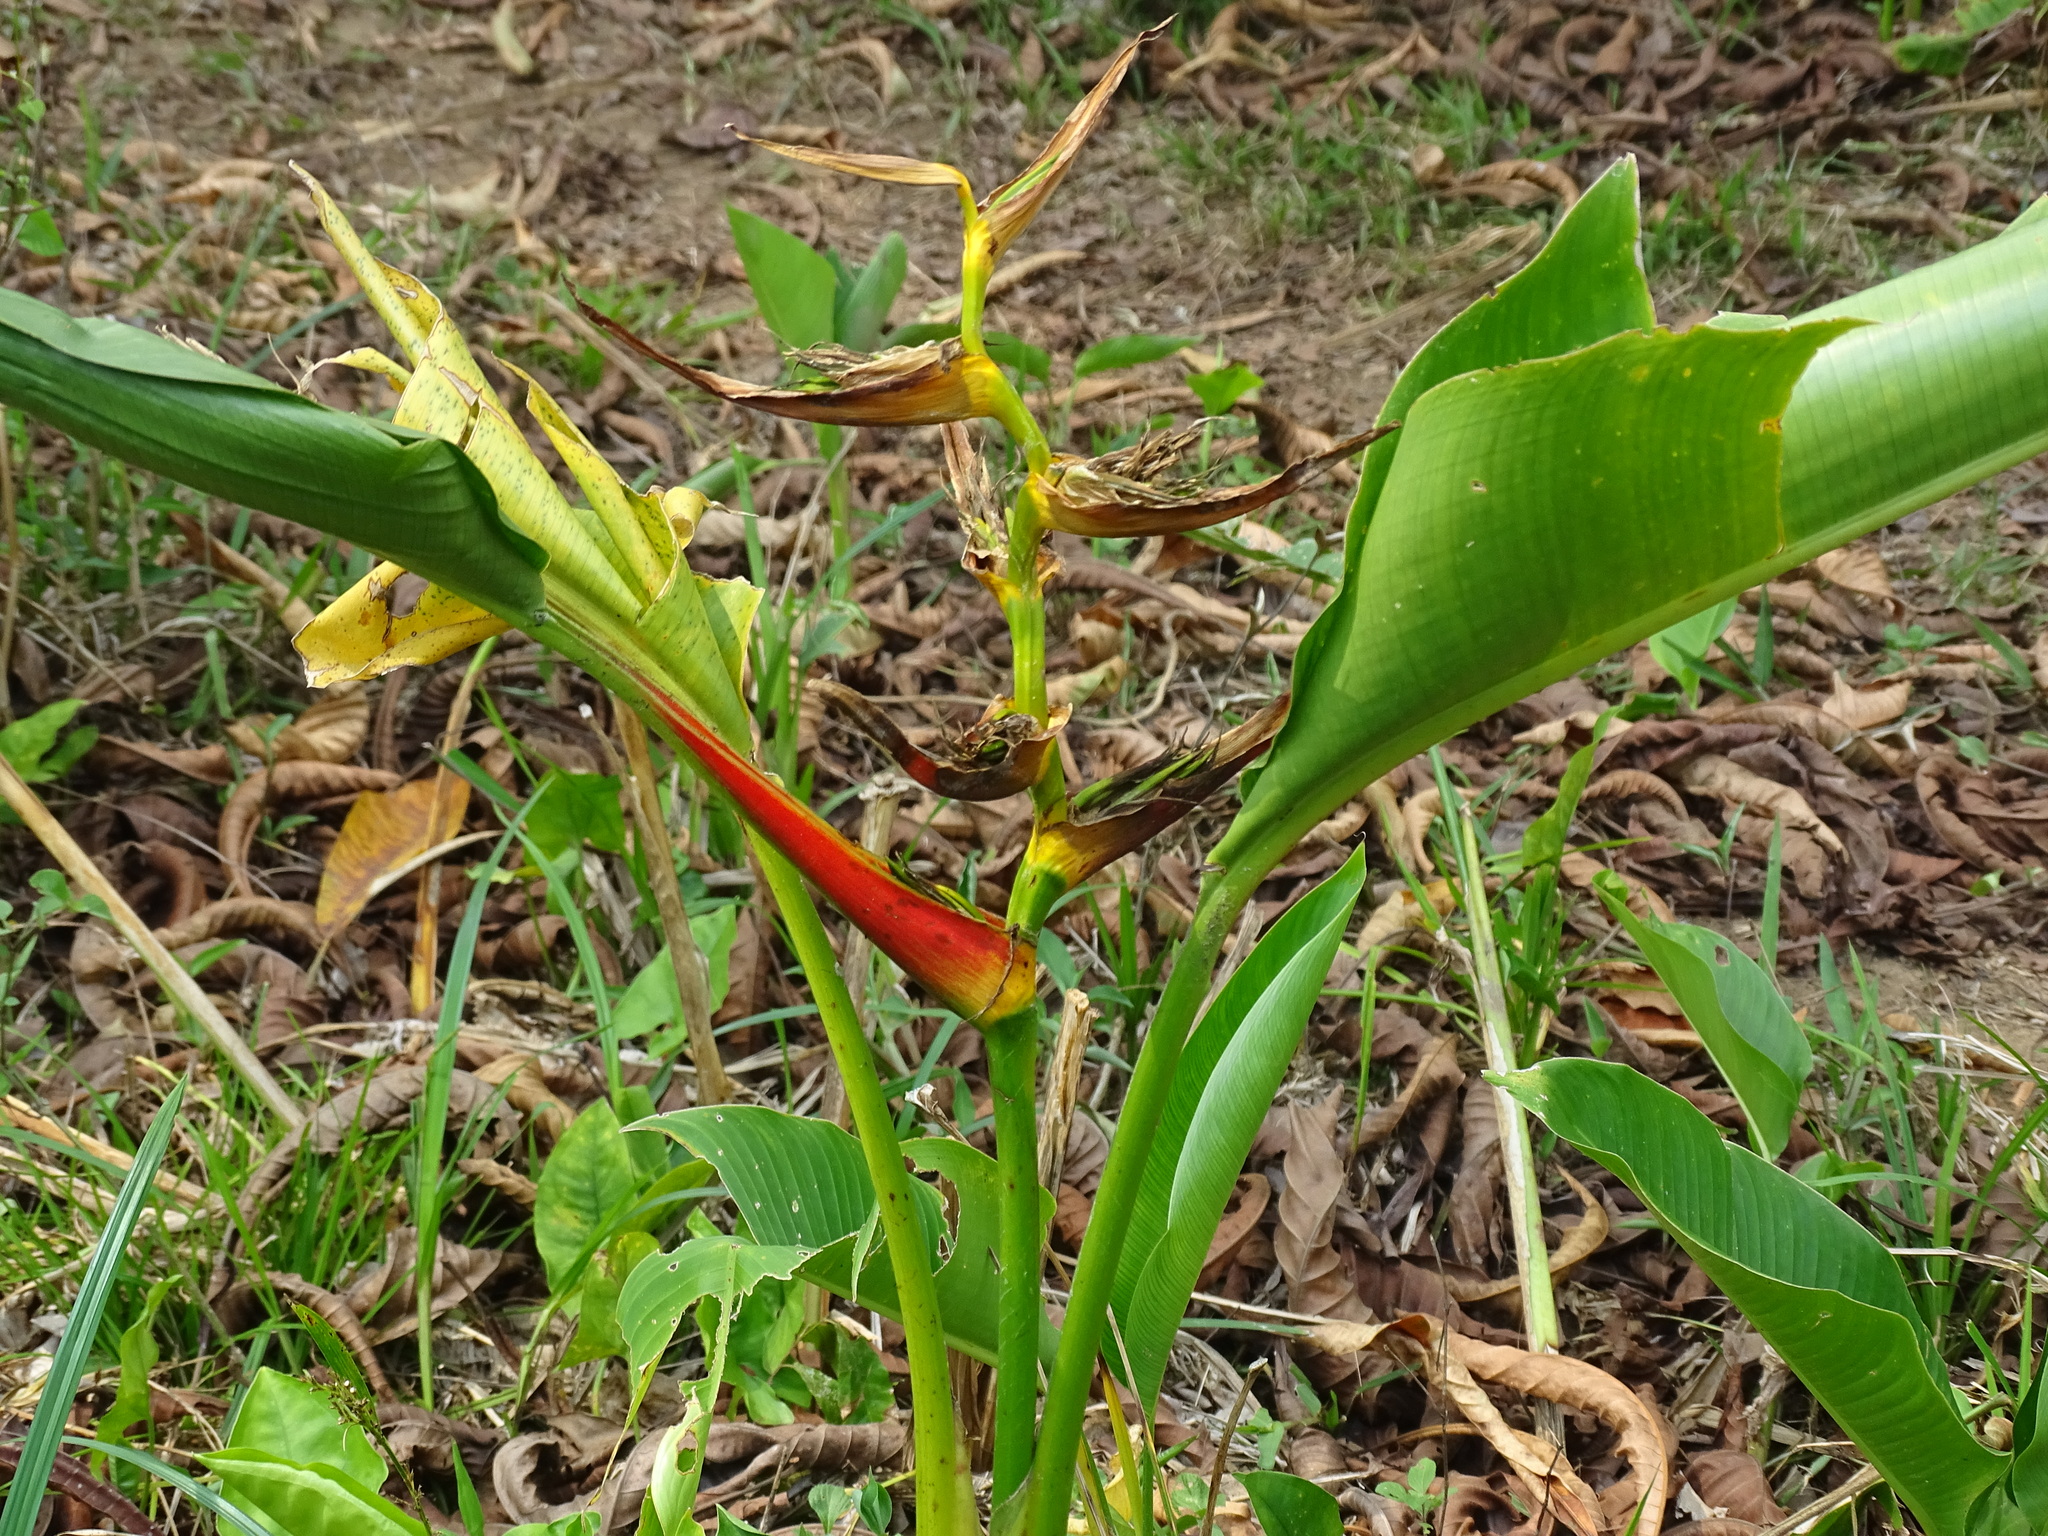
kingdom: Plantae
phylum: Tracheophyta
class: Liliopsida
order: Zingiberales
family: Heliconiaceae
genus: Heliconia
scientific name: Heliconia latispatha
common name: Expanded lobsterclaw
